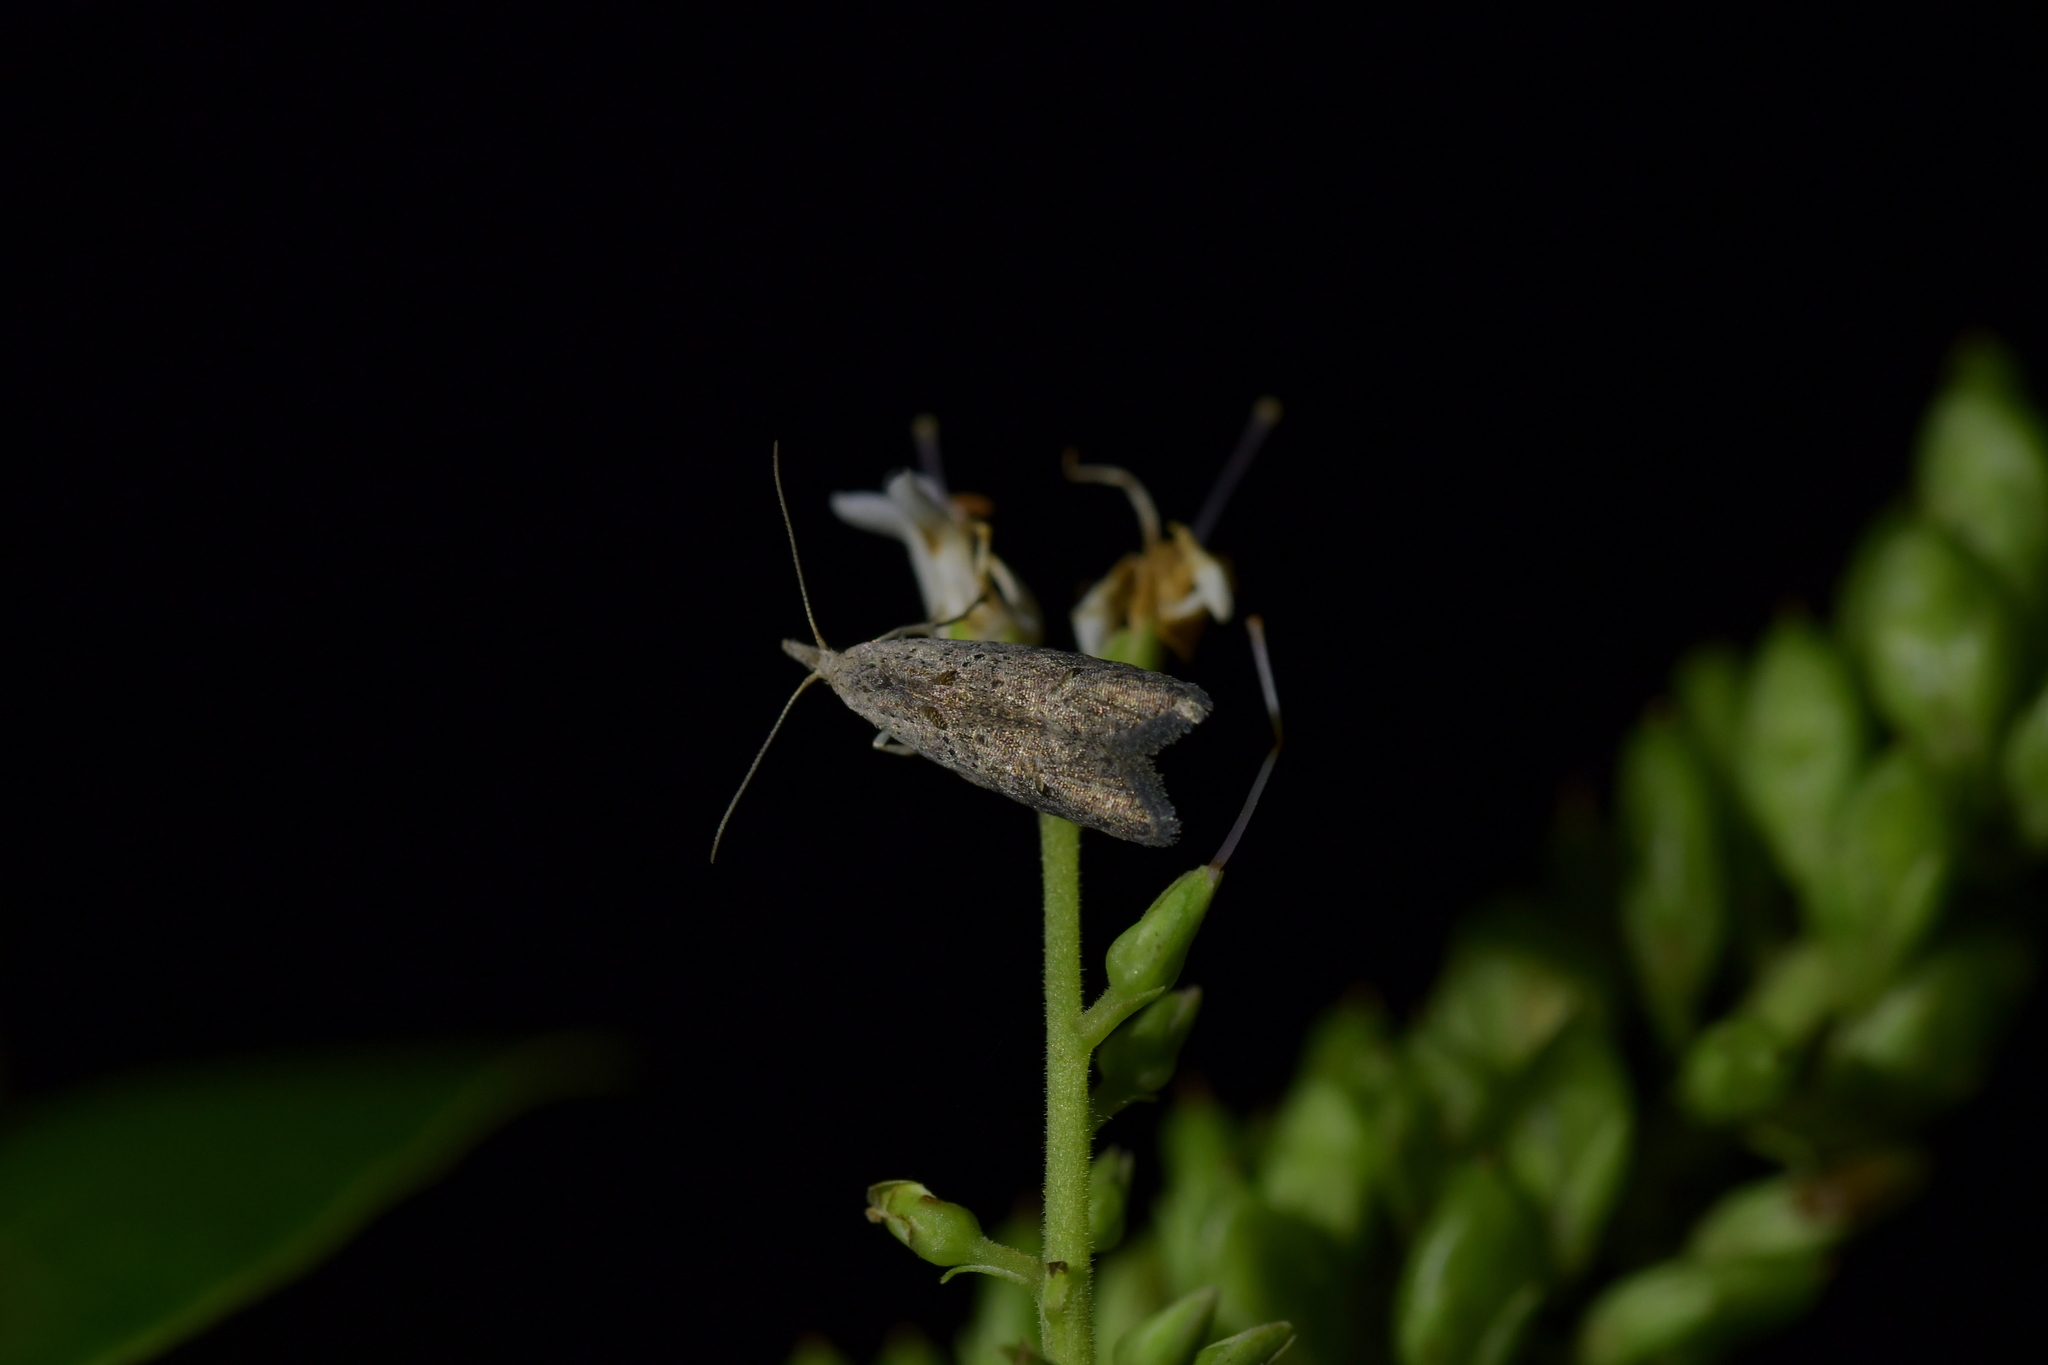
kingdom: Animalia
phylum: Arthropoda
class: Insecta
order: Lepidoptera
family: Carposinidae
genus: Carposina
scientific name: Carposina rubophaga
